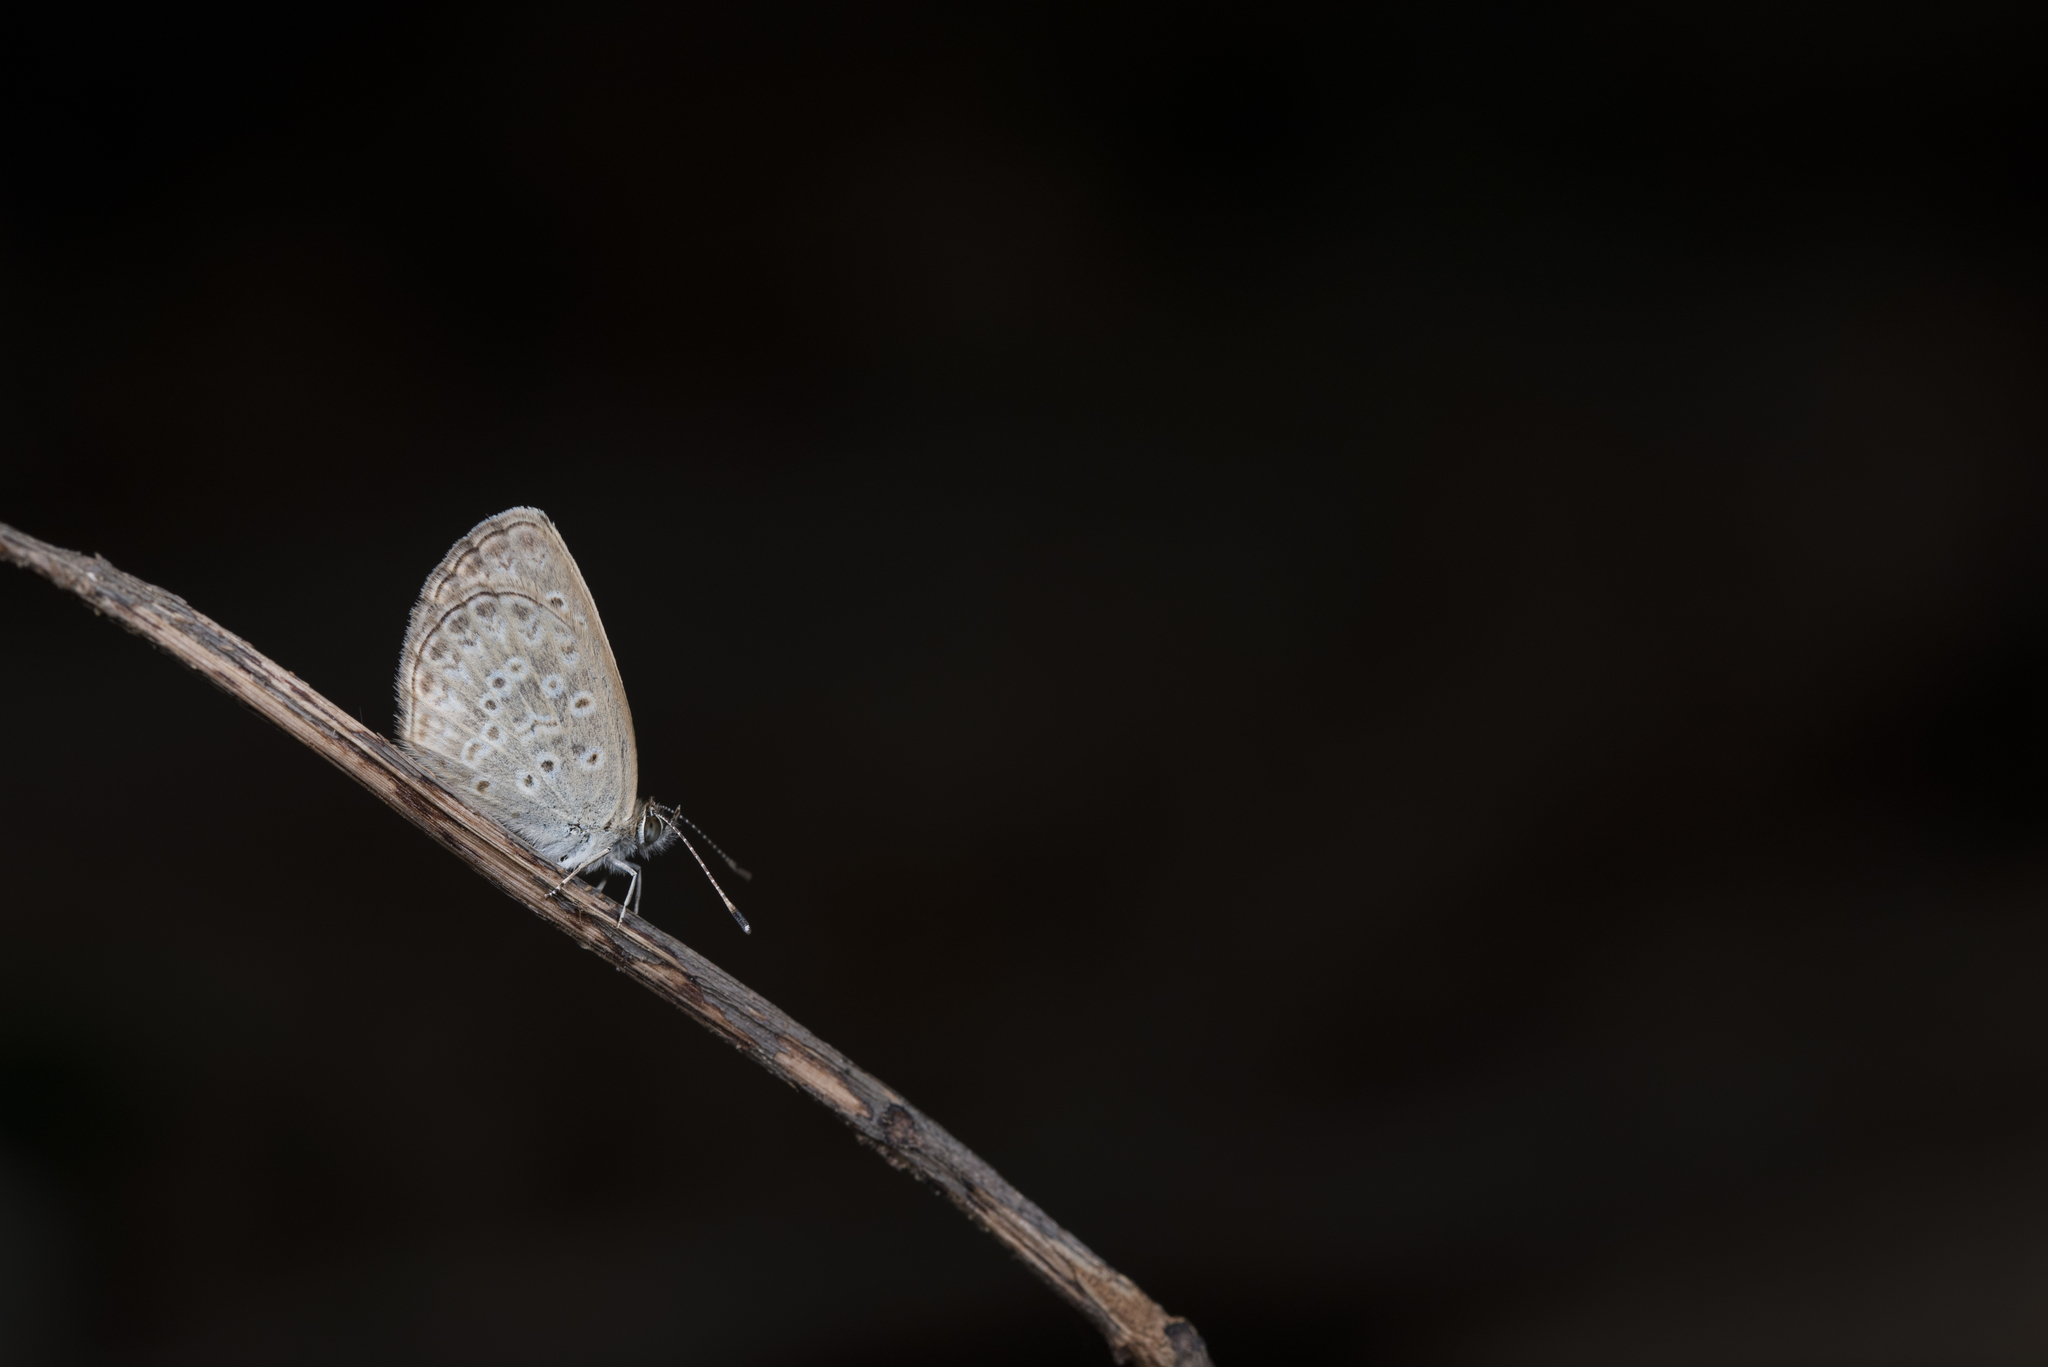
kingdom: Animalia
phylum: Arthropoda
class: Insecta
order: Lepidoptera
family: Lycaenidae
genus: Pseudozizeeria
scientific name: Pseudozizeeria maha
